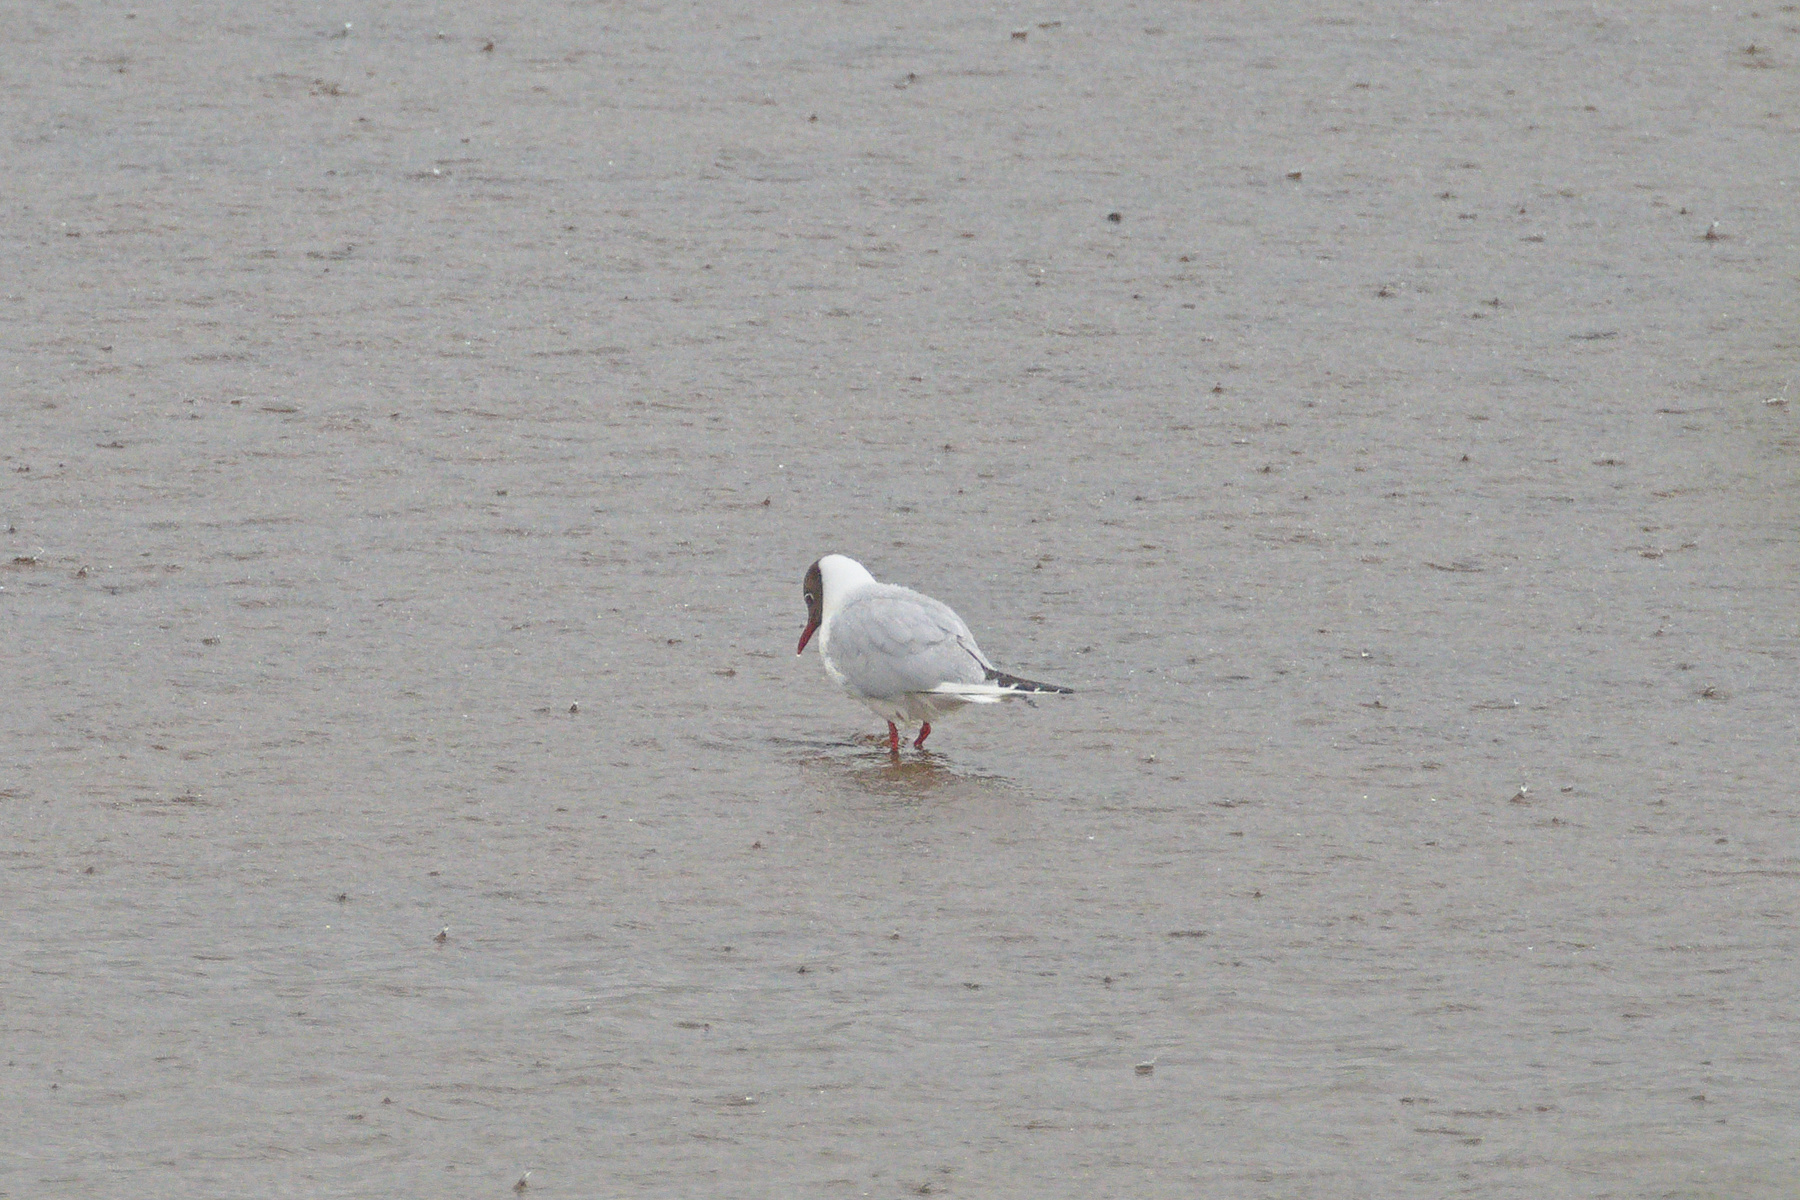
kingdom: Animalia
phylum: Chordata
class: Aves
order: Charadriiformes
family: Laridae
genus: Chroicocephalus
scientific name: Chroicocephalus ridibundus
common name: Black-headed gull
